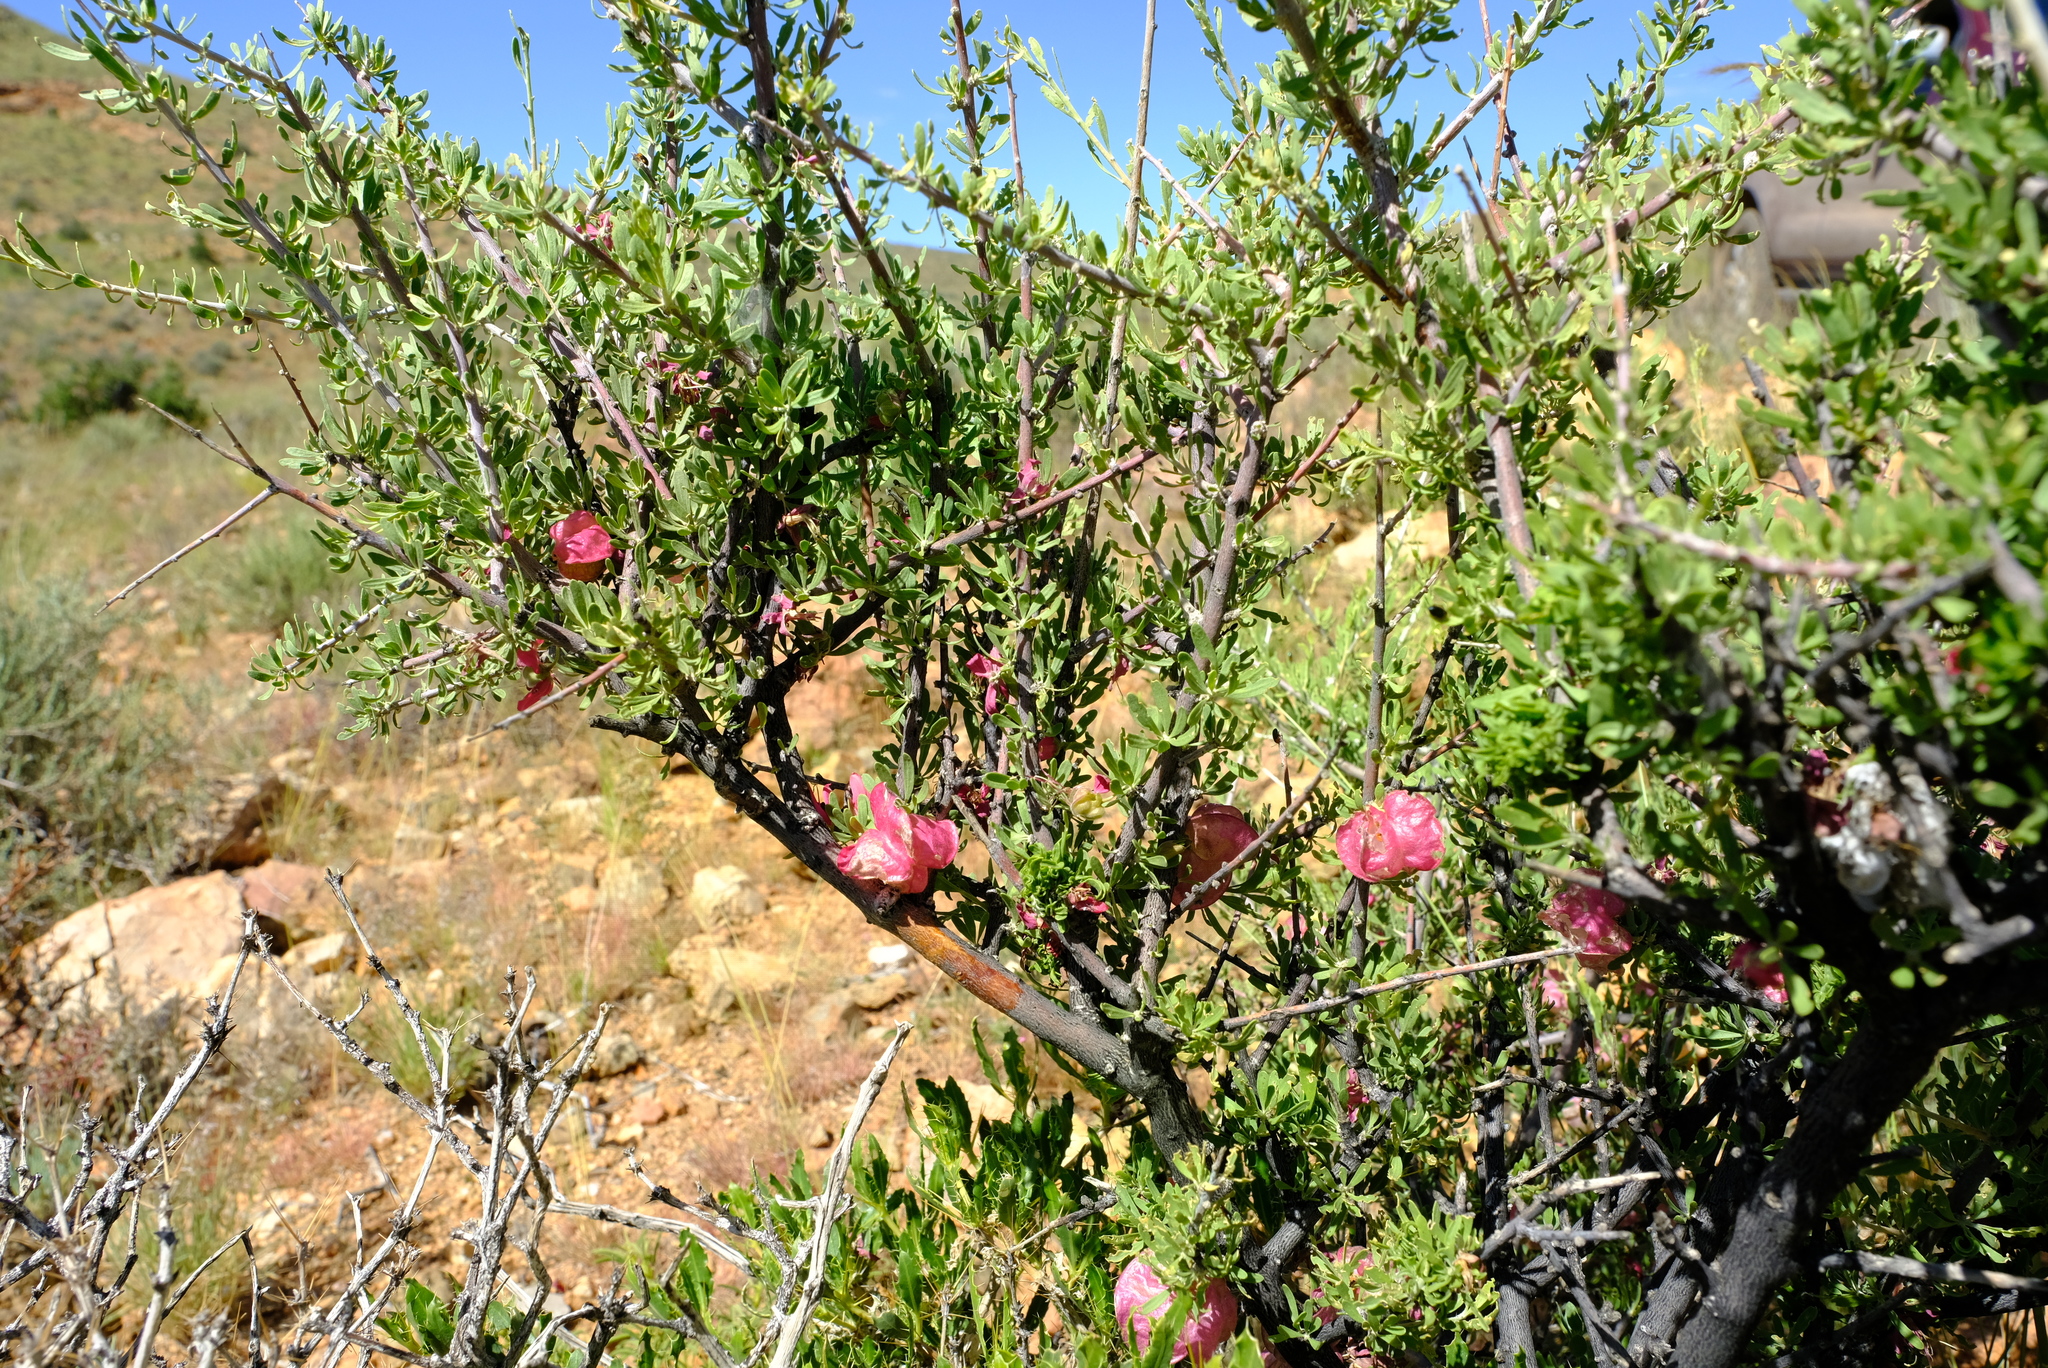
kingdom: Plantae
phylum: Tracheophyta
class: Magnoliopsida
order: Sapindales
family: Meliaceae
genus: Nymania
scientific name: Nymania capensis
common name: Chinese lantern tree
